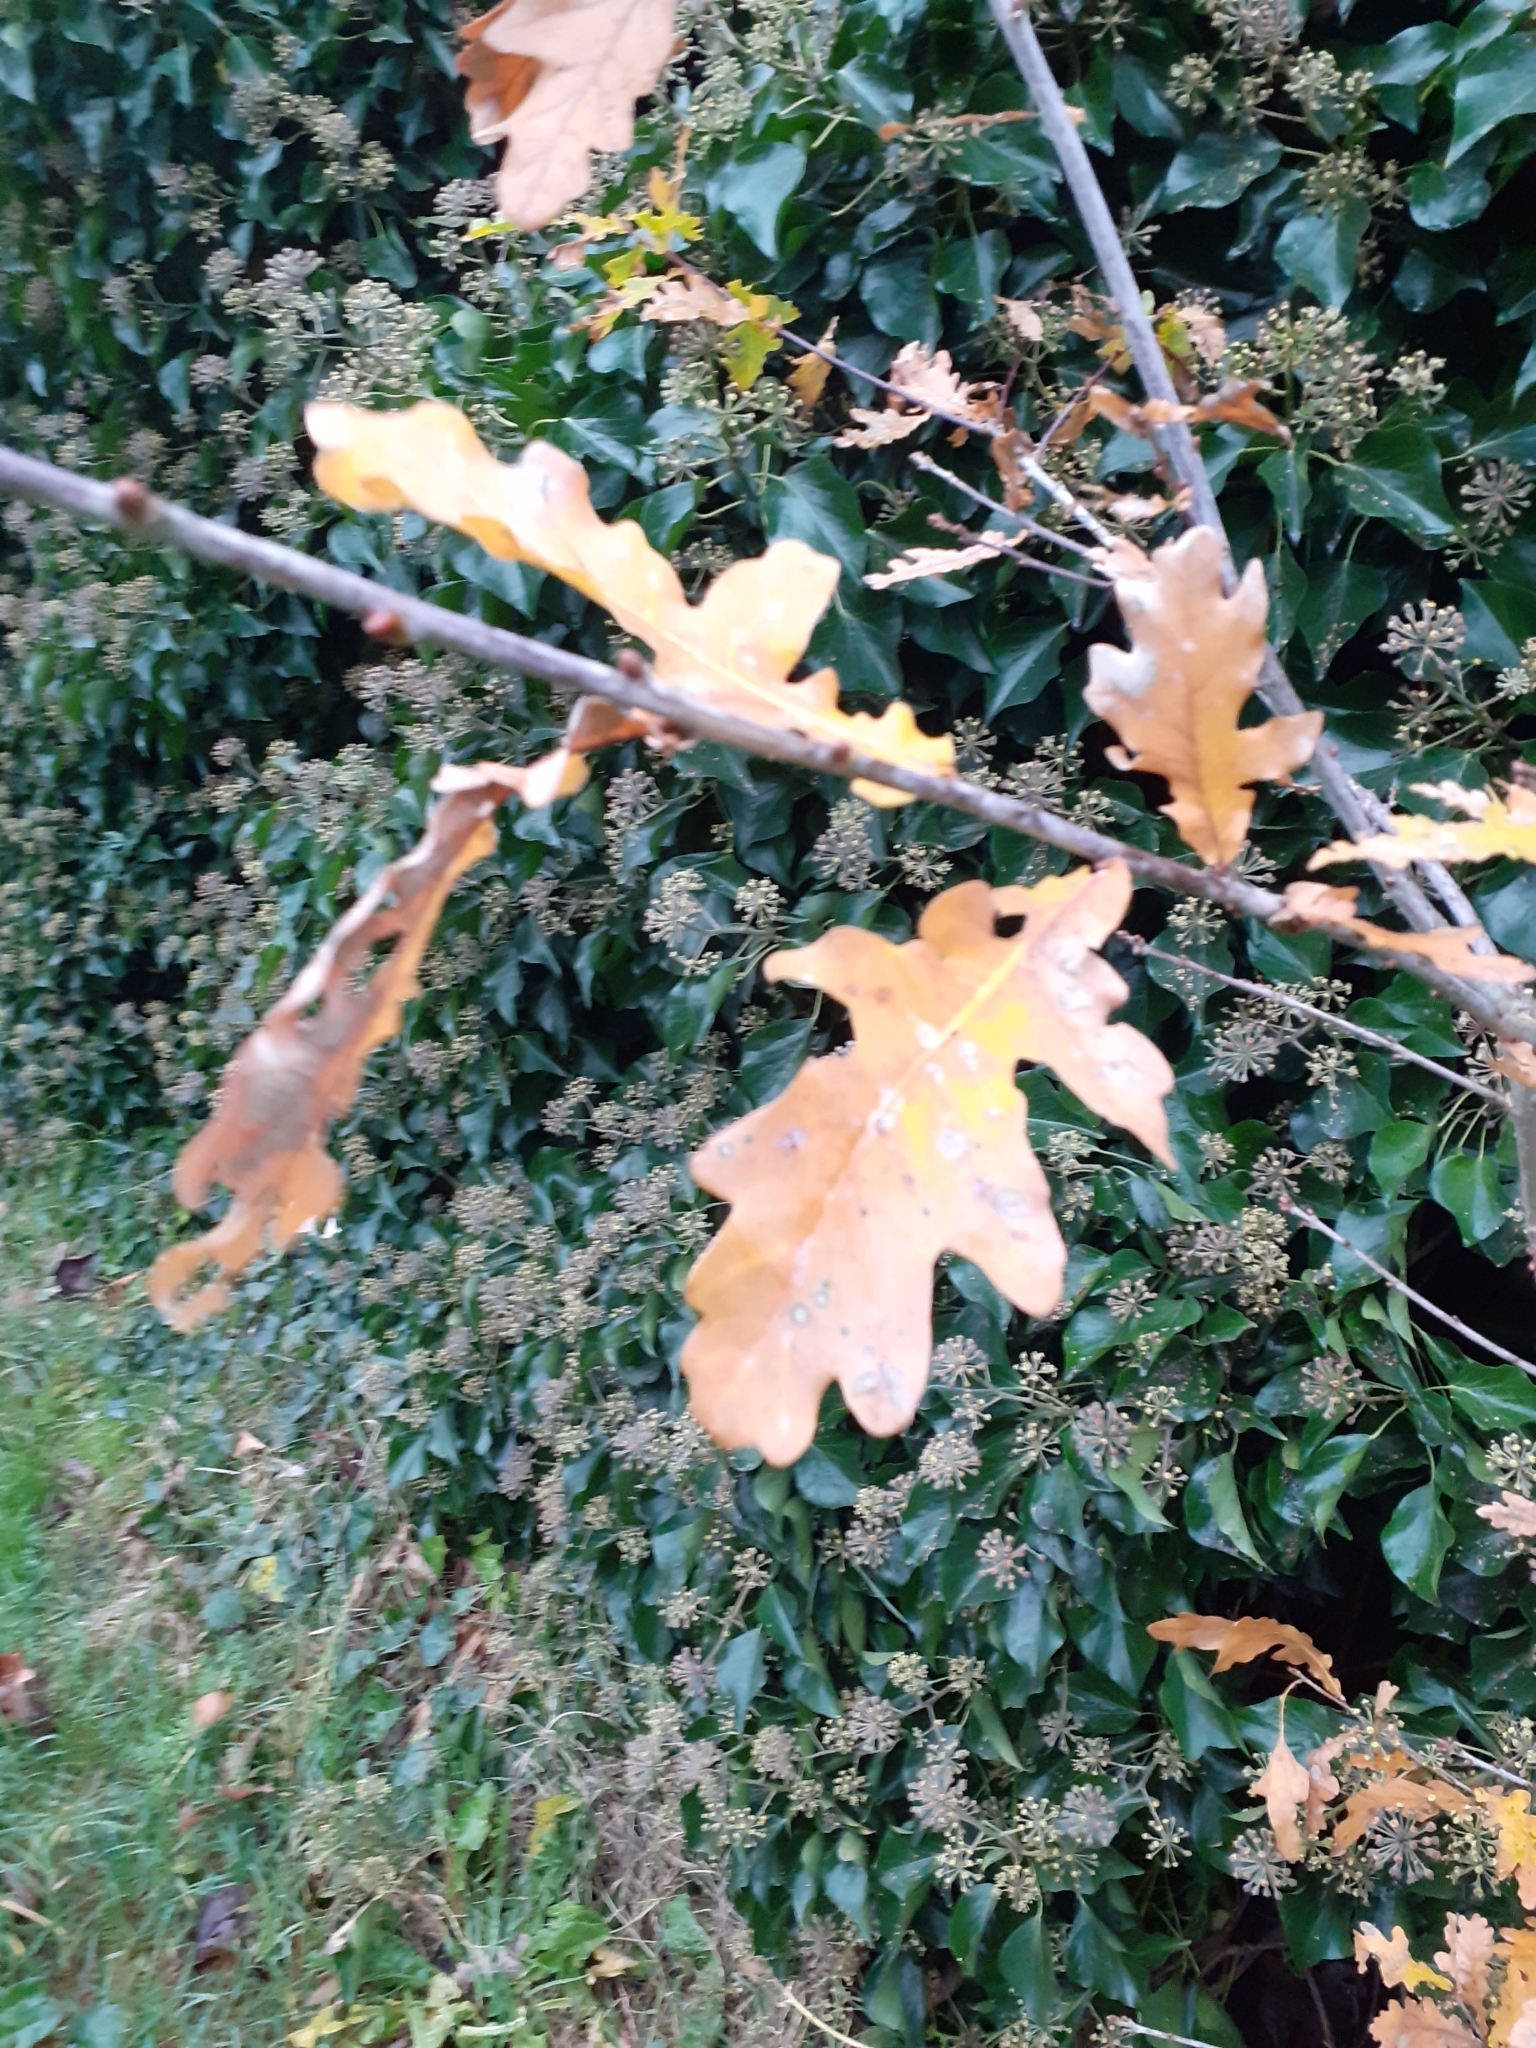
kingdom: Plantae
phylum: Tracheophyta
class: Magnoliopsida
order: Fagales
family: Fagaceae
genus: Quercus
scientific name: Quercus robur
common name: Pedunculate oak
